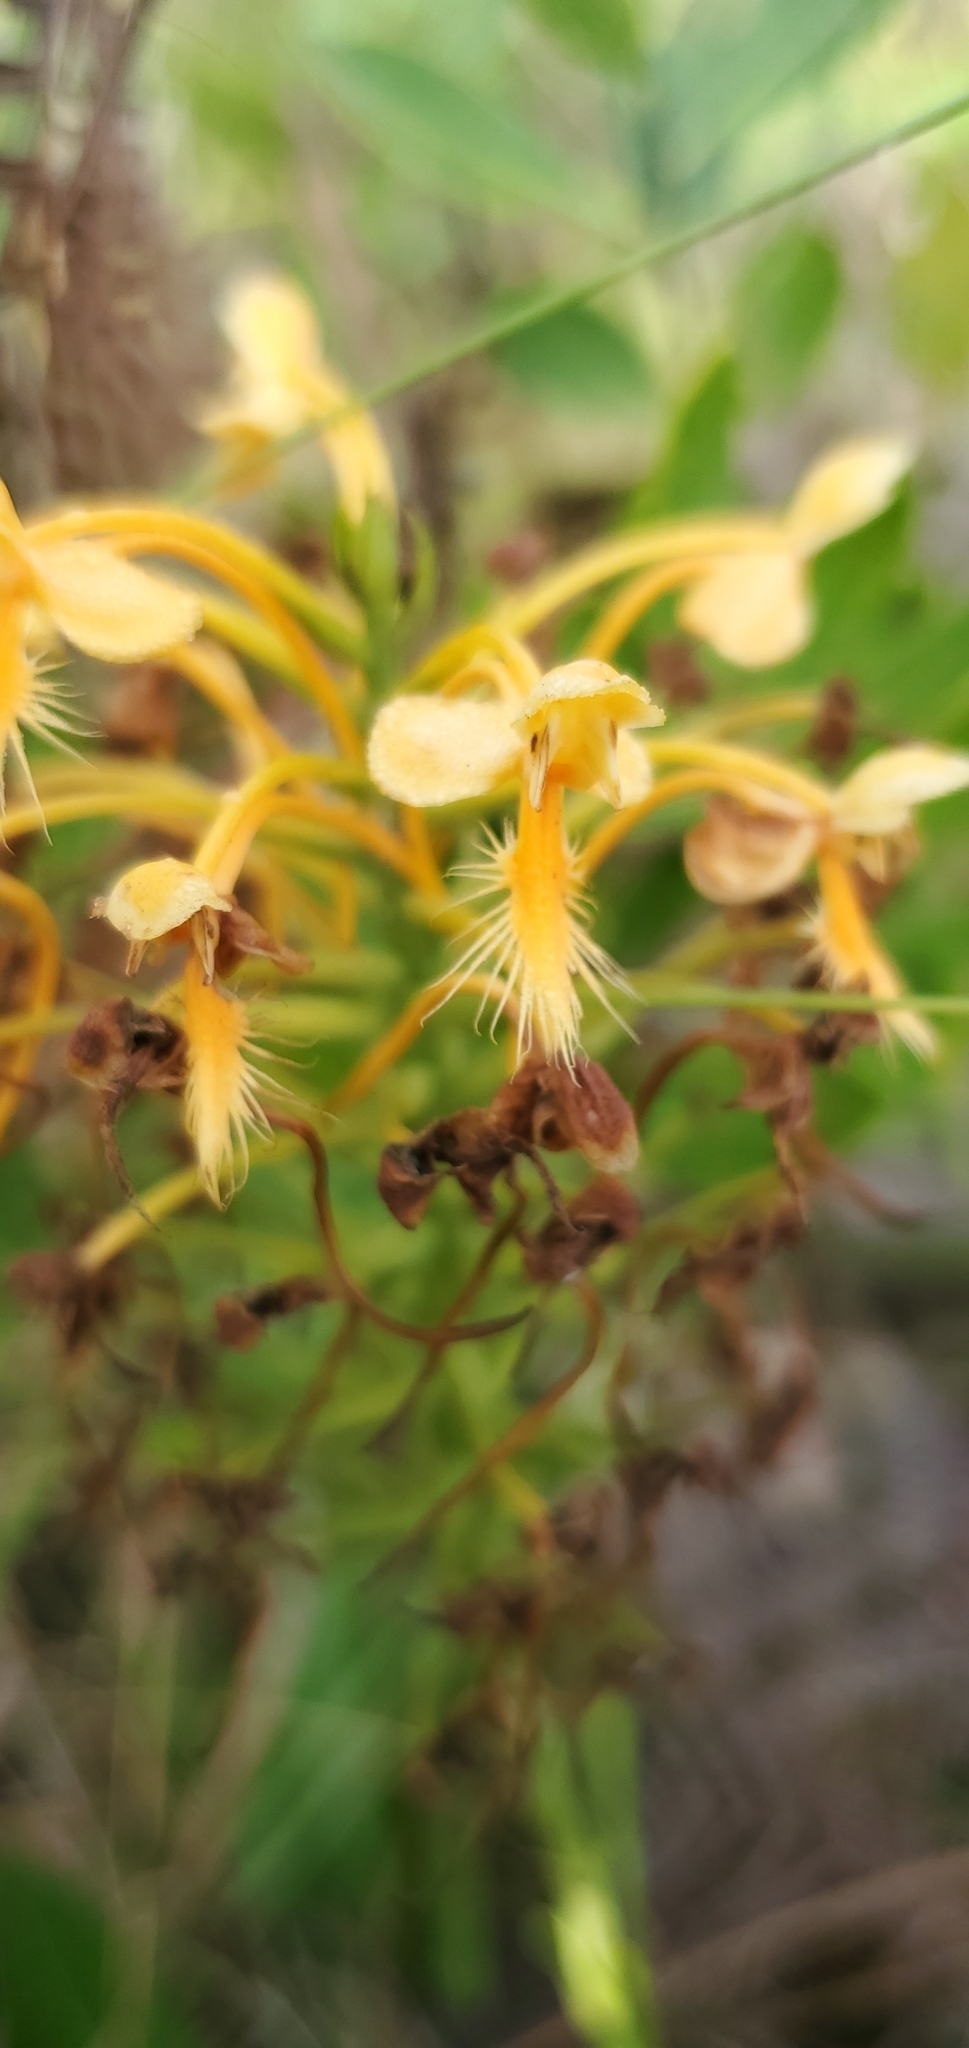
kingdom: Plantae
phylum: Tracheophyta
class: Liliopsida
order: Asparagales
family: Orchidaceae
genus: Platanthera
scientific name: Platanthera ciliaris
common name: Yellow fringed orchid
